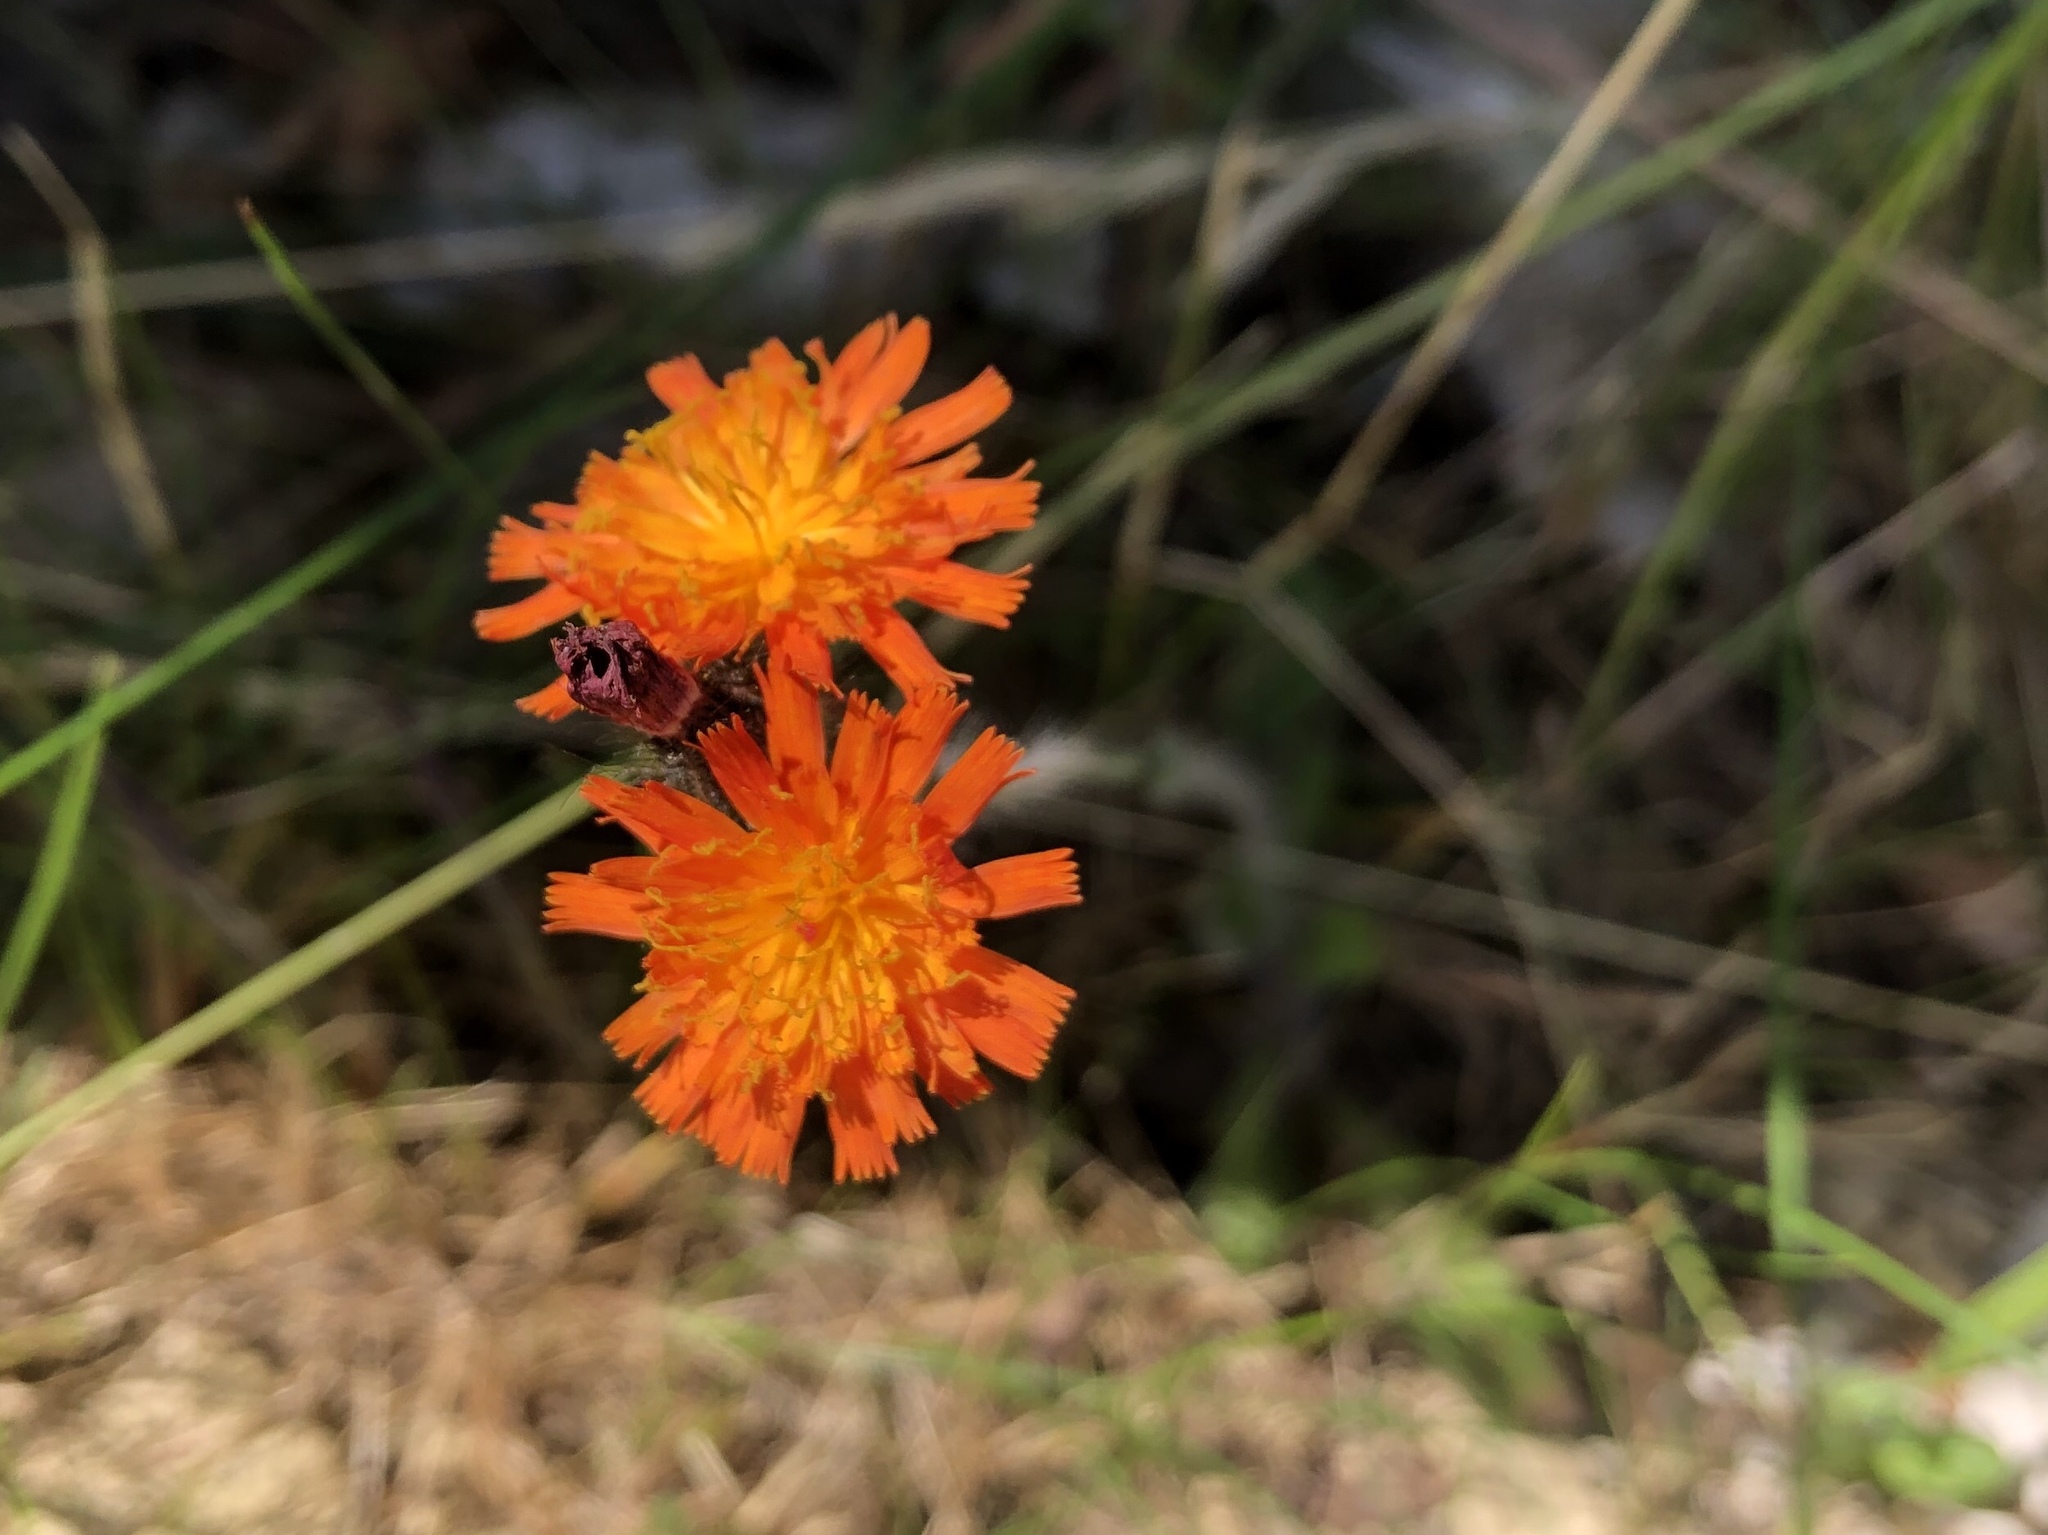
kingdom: Plantae
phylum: Tracheophyta
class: Magnoliopsida
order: Asterales
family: Asteraceae
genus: Pilosella
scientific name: Pilosella aurantiaca
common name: Fox-and-cubs
